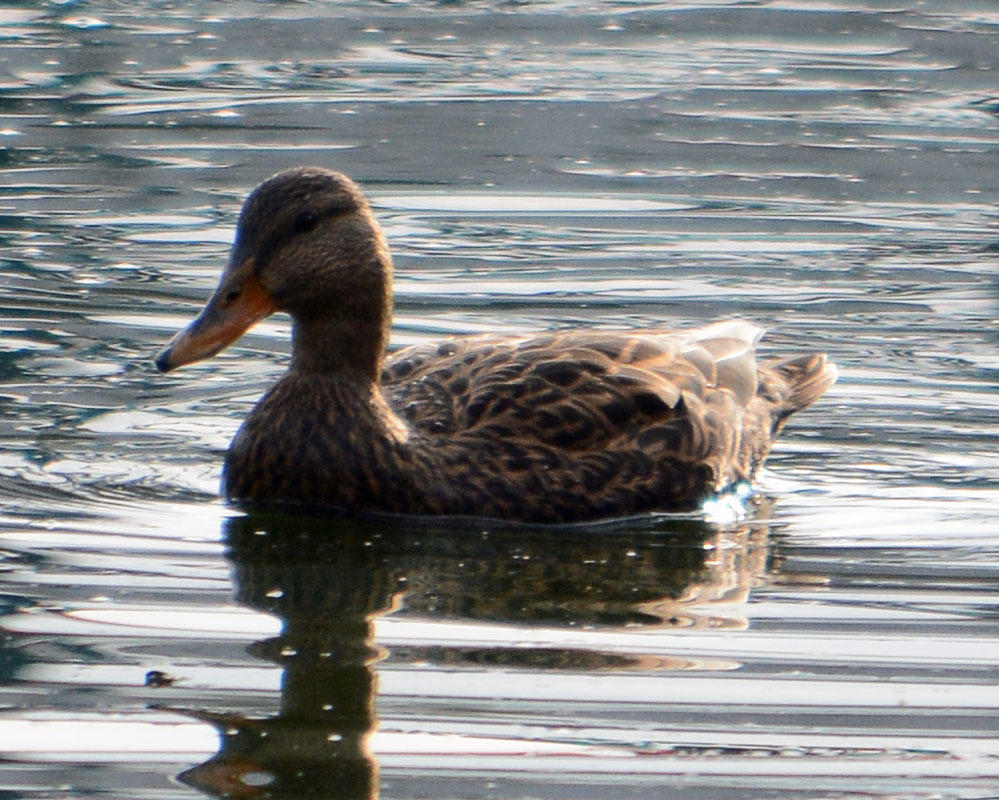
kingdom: Animalia
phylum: Chordata
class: Aves
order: Anseriformes
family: Anatidae
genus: Anas
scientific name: Anas diazi
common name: Mexican duck
